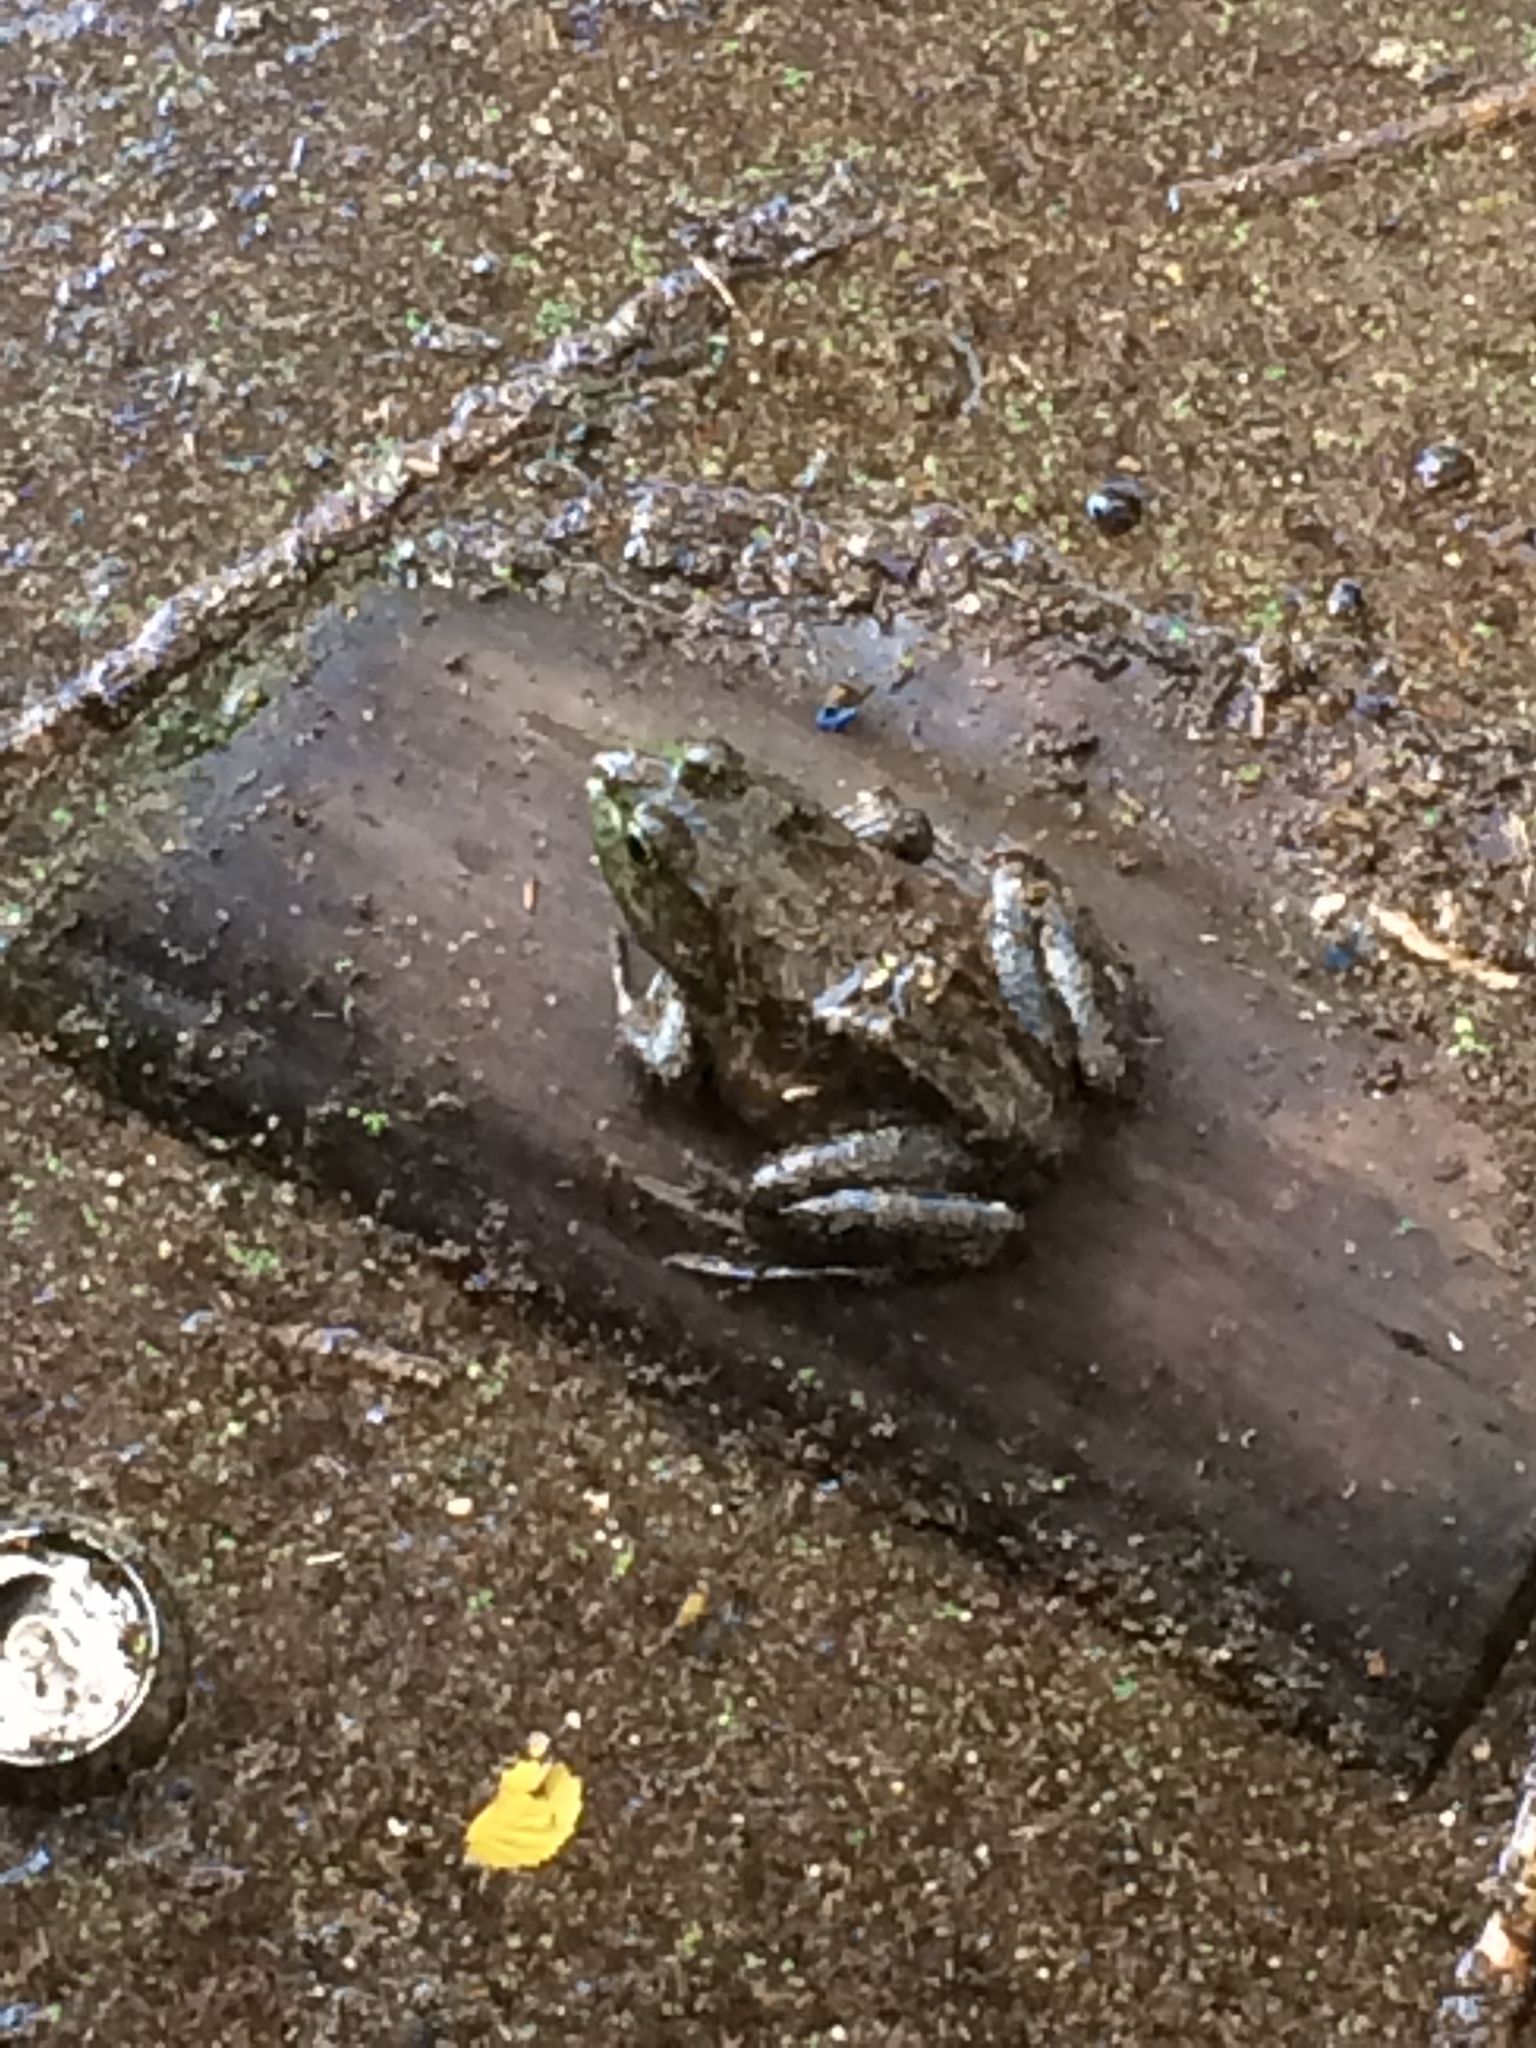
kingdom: Animalia
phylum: Chordata
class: Amphibia
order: Anura
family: Ranidae
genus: Lithobates
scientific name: Lithobates catesbeianus
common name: American bullfrog
